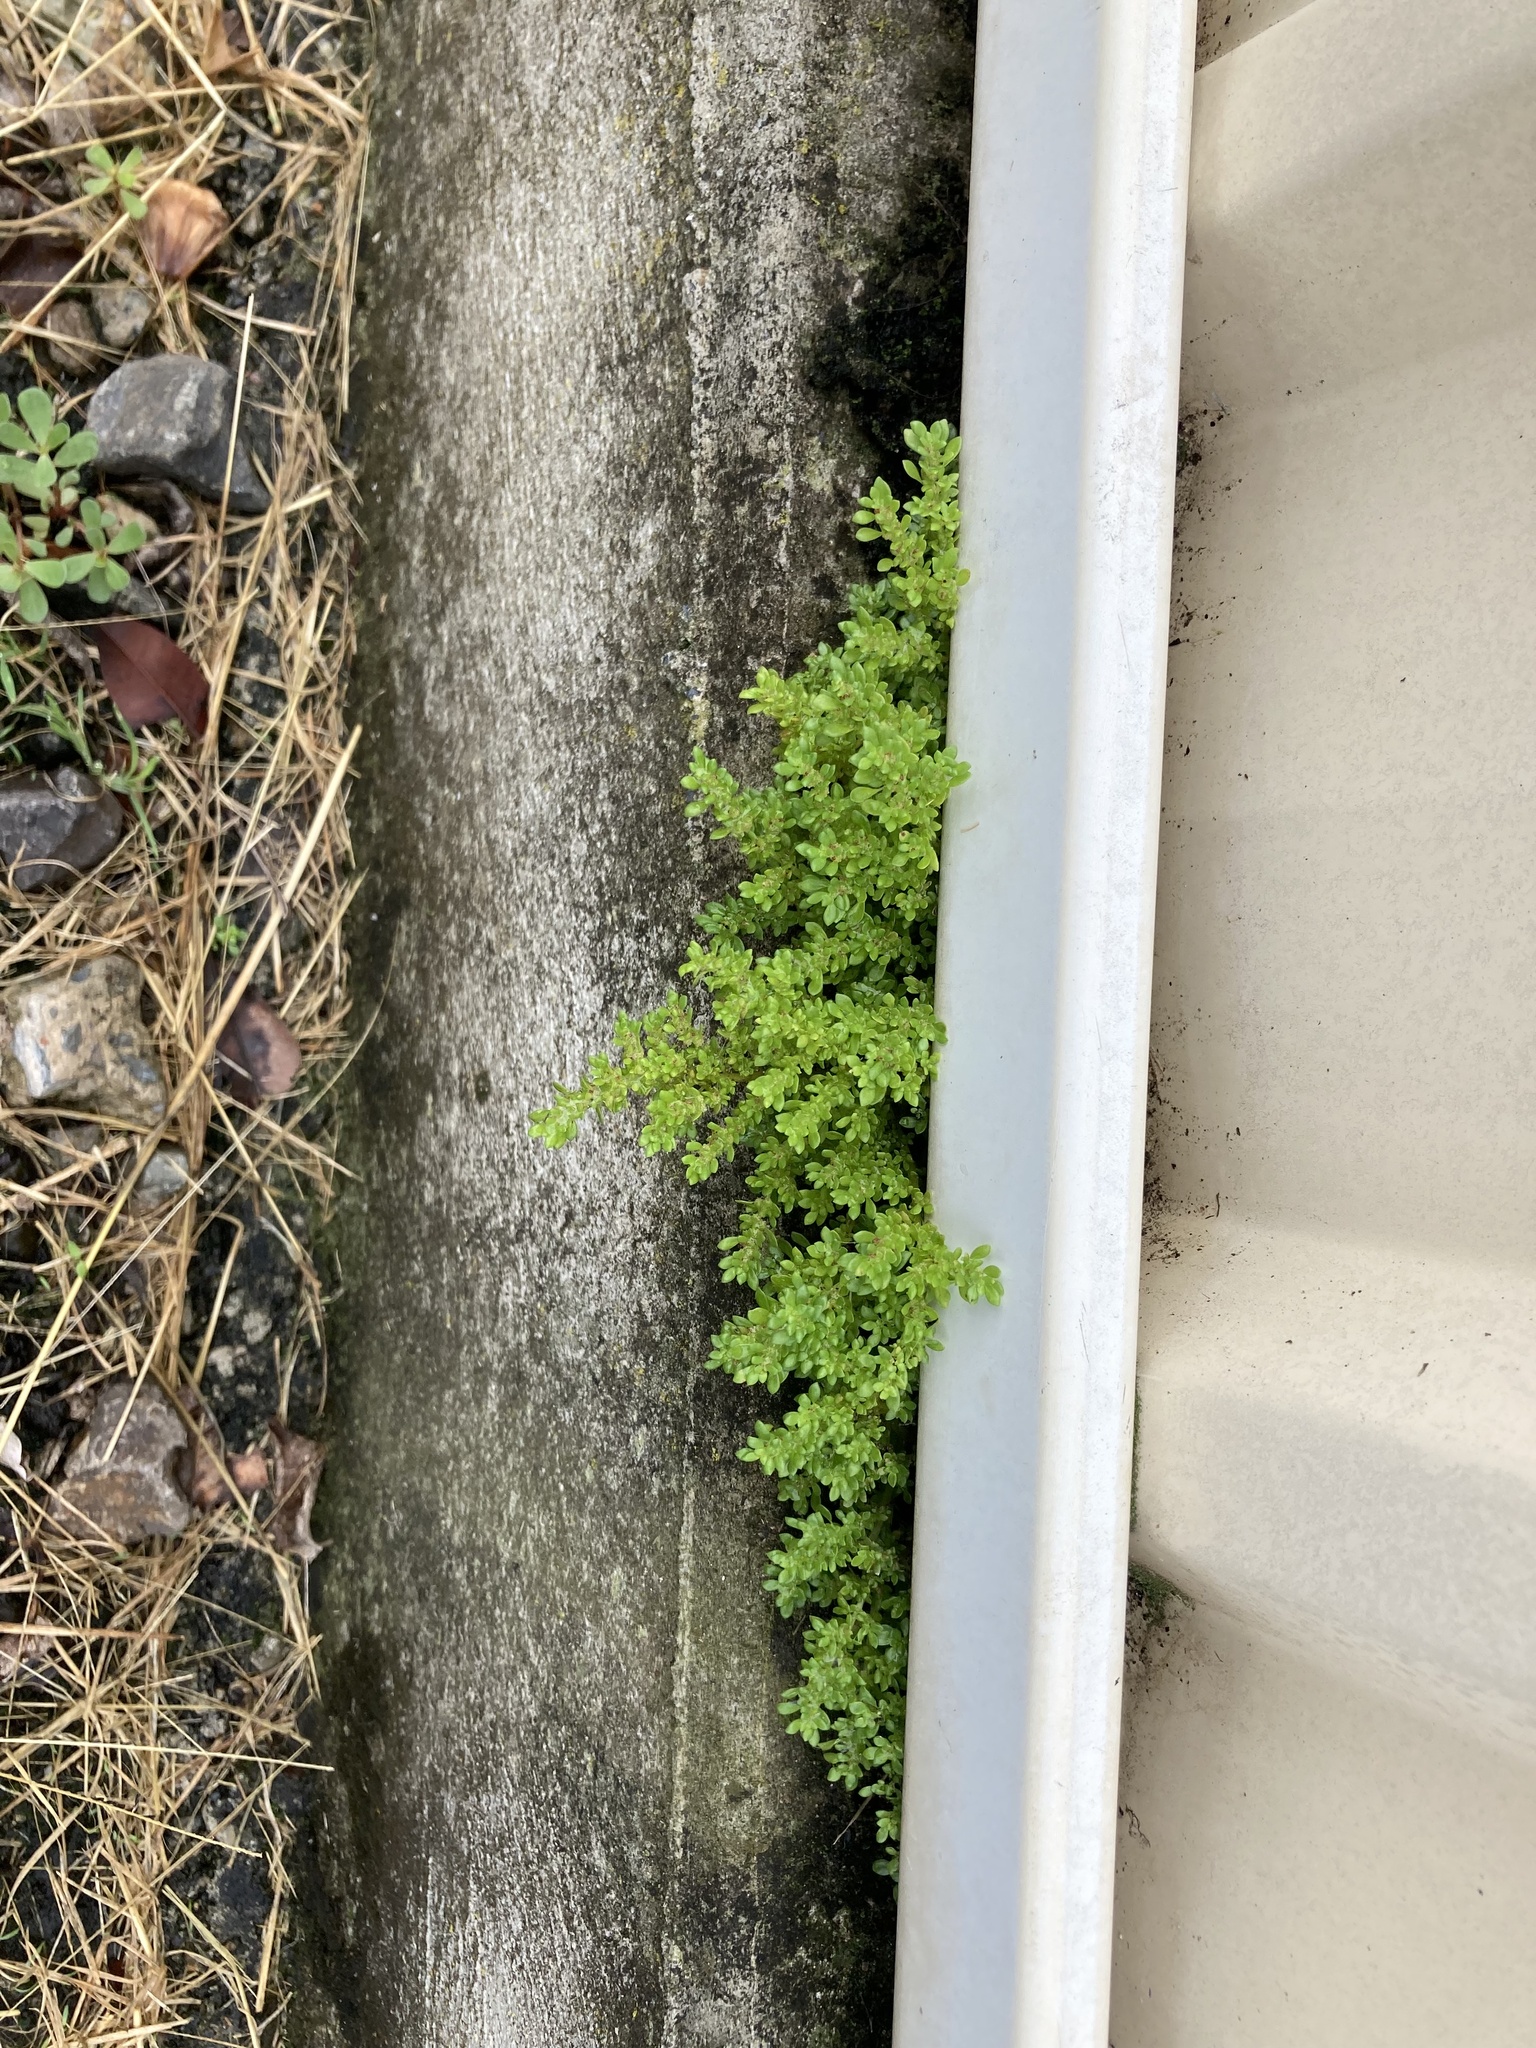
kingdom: Plantae
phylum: Tracheophyta
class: Magnoliopsida
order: Rosales
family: Urticaceae
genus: Pilea
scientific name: Pilea microphylla
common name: Artillery-plant
